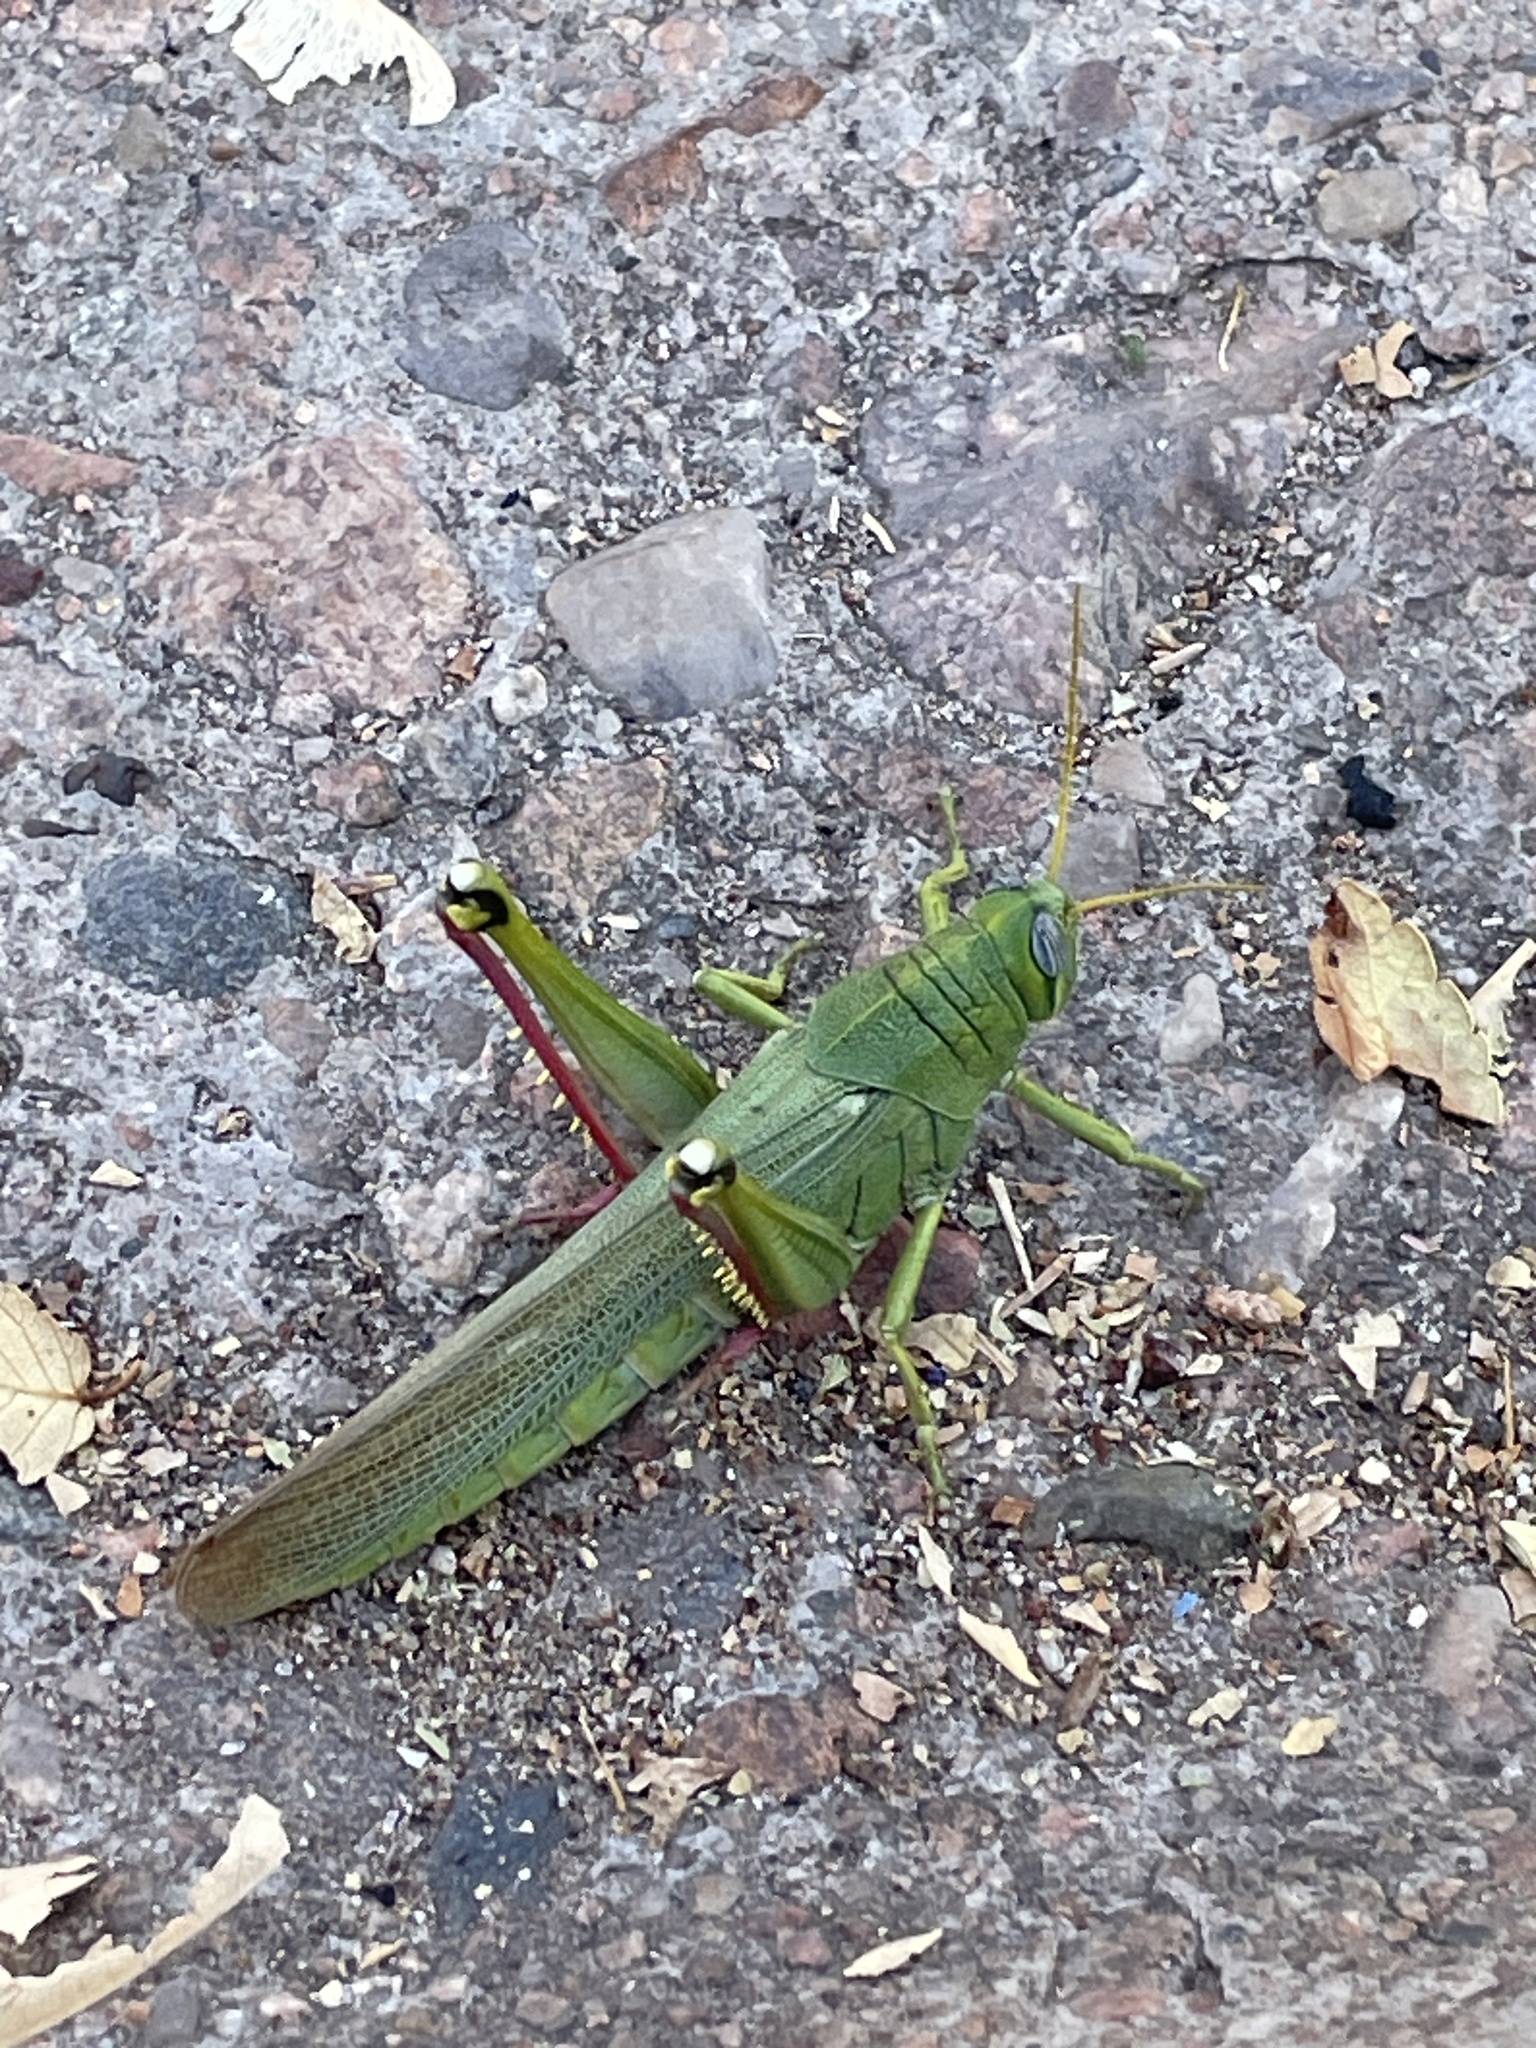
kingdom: Animalia
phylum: Arthropoda
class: Insecta
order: Orthoptera
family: Acrididae
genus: Schistocerca
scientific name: Schistocerca shoshone
